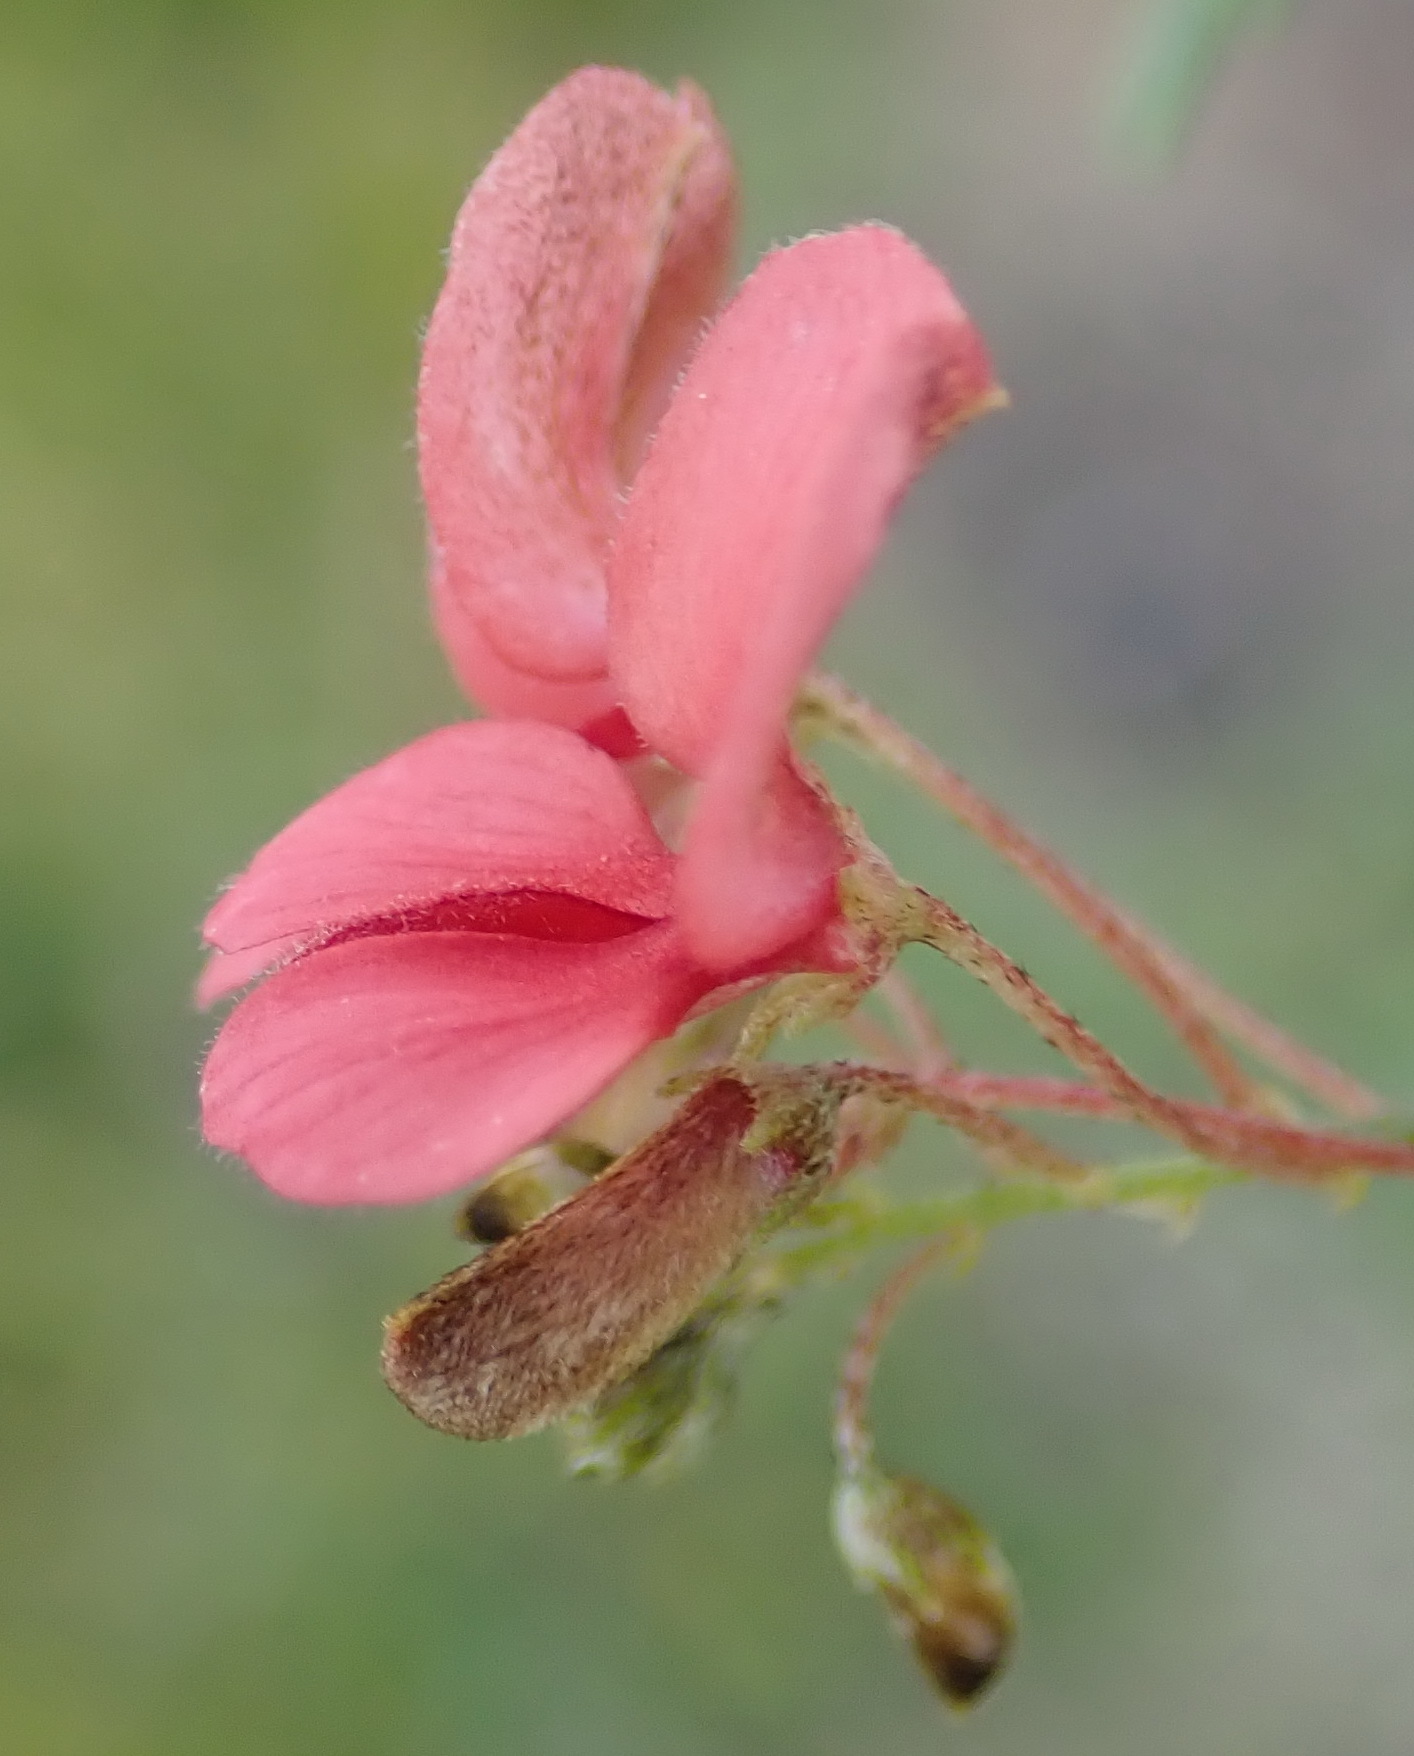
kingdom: Plantae
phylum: Tracheophyta
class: Magnoliopsida
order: Fabales
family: Fabaceae
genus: Indigofera
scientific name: Indigofera verrucosa
